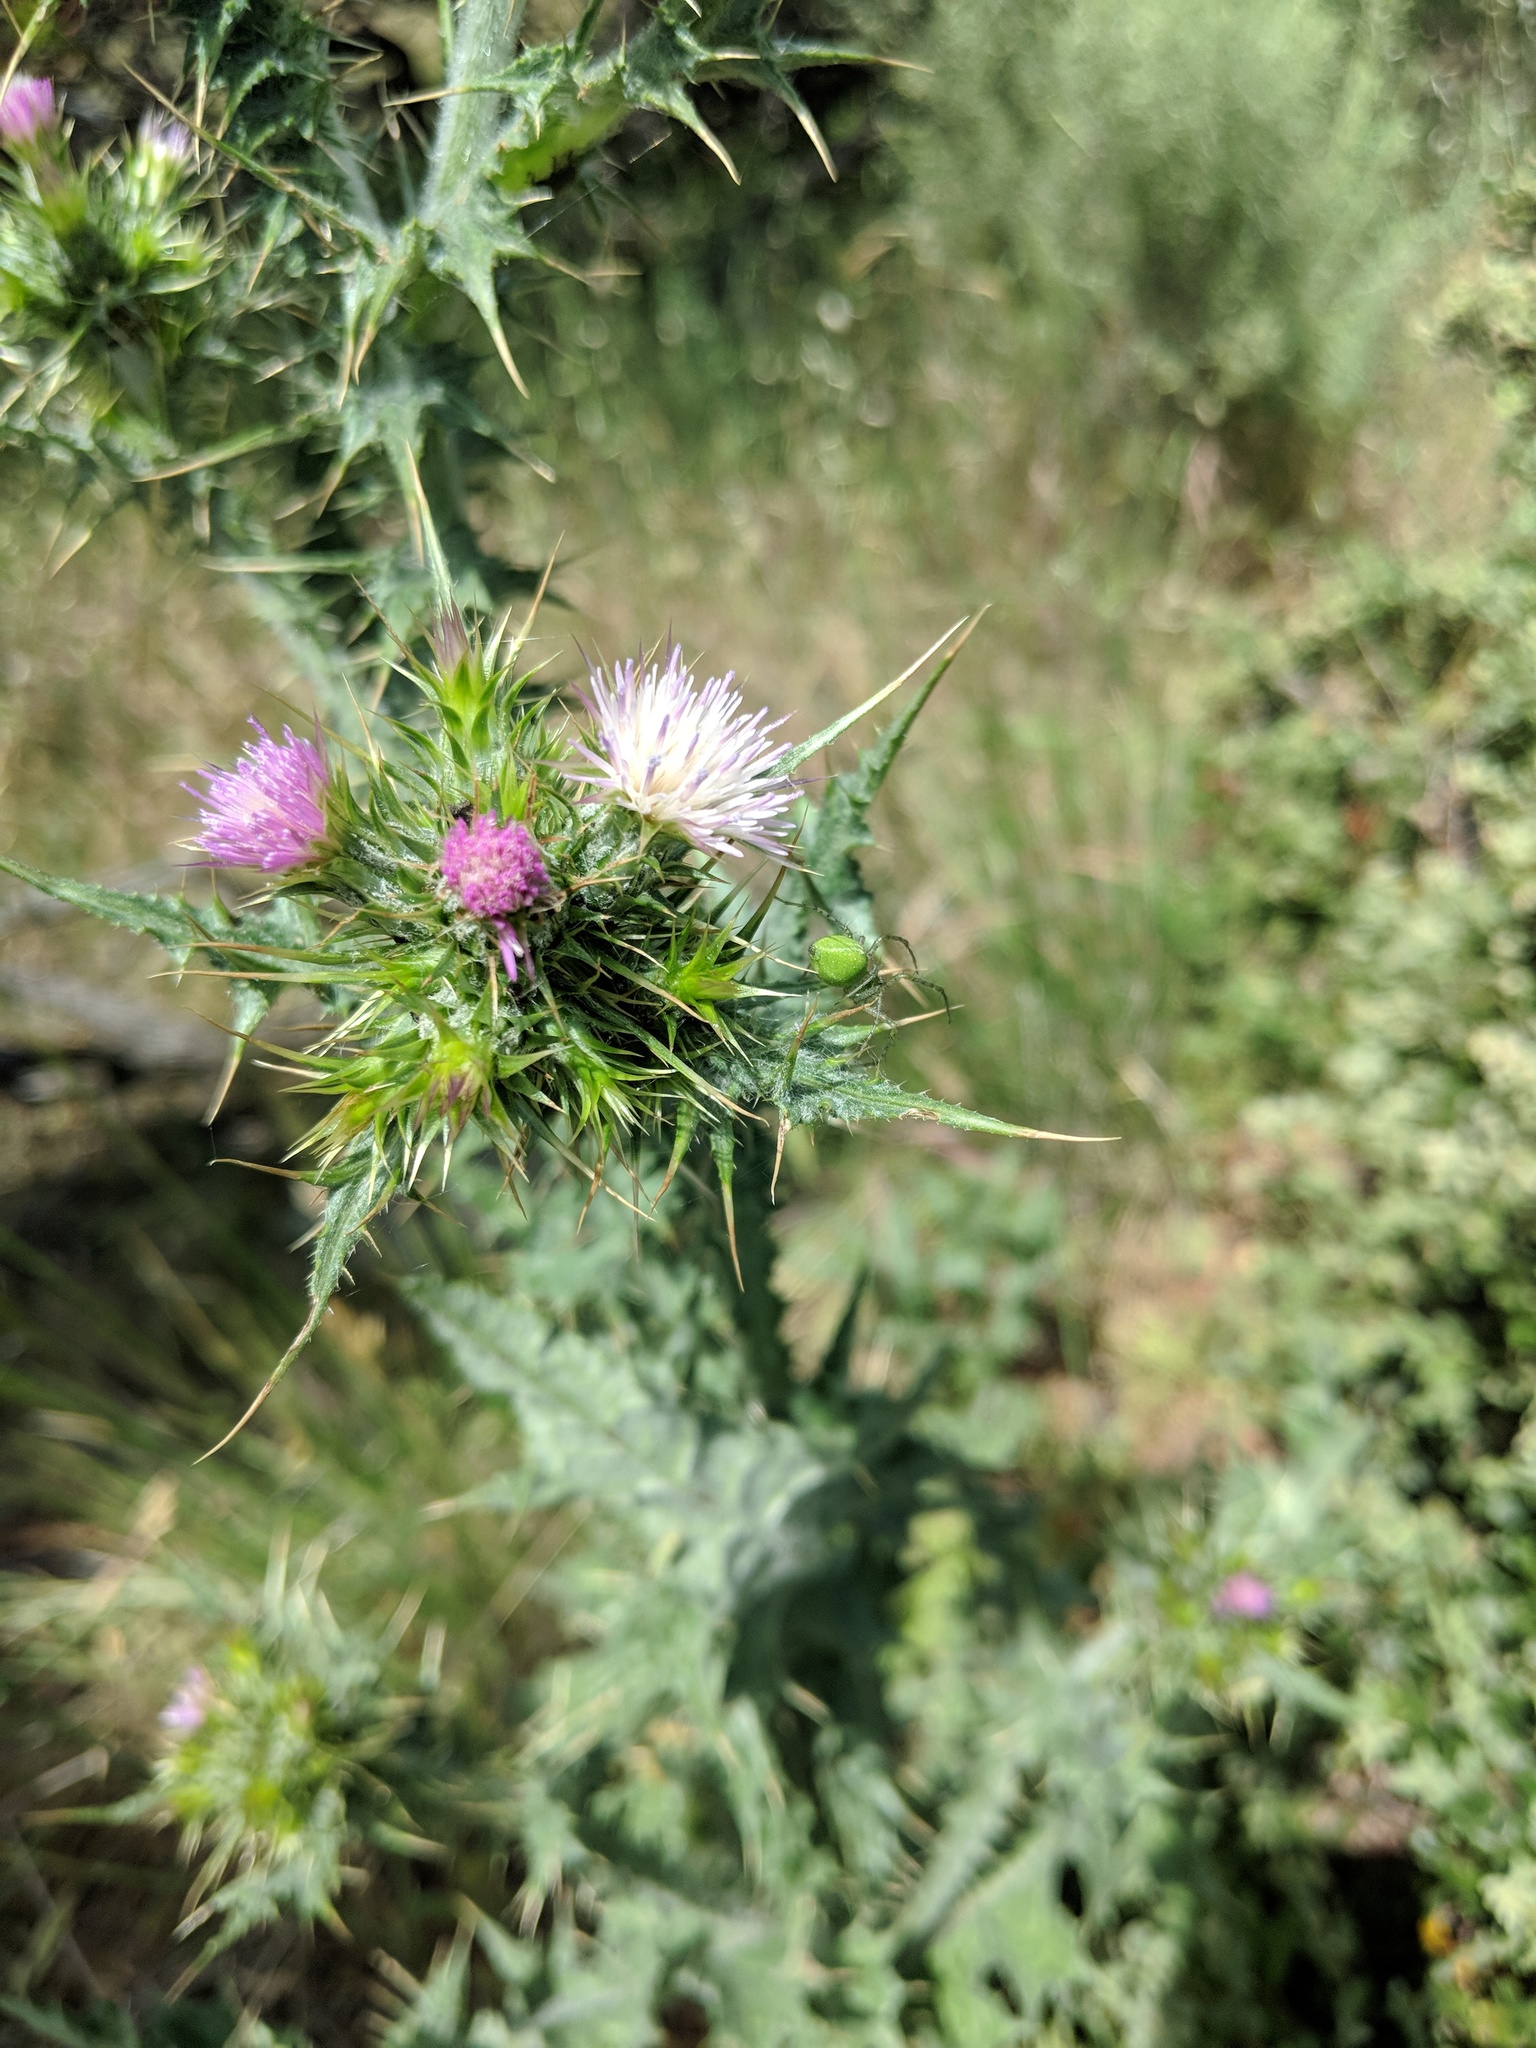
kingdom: Plantae
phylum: Tracheophyta
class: Magnoliopsida
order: Asterales
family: Asteraceae
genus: Carduus
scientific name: Carduus pycnocephalus
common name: Plymouth thistle
